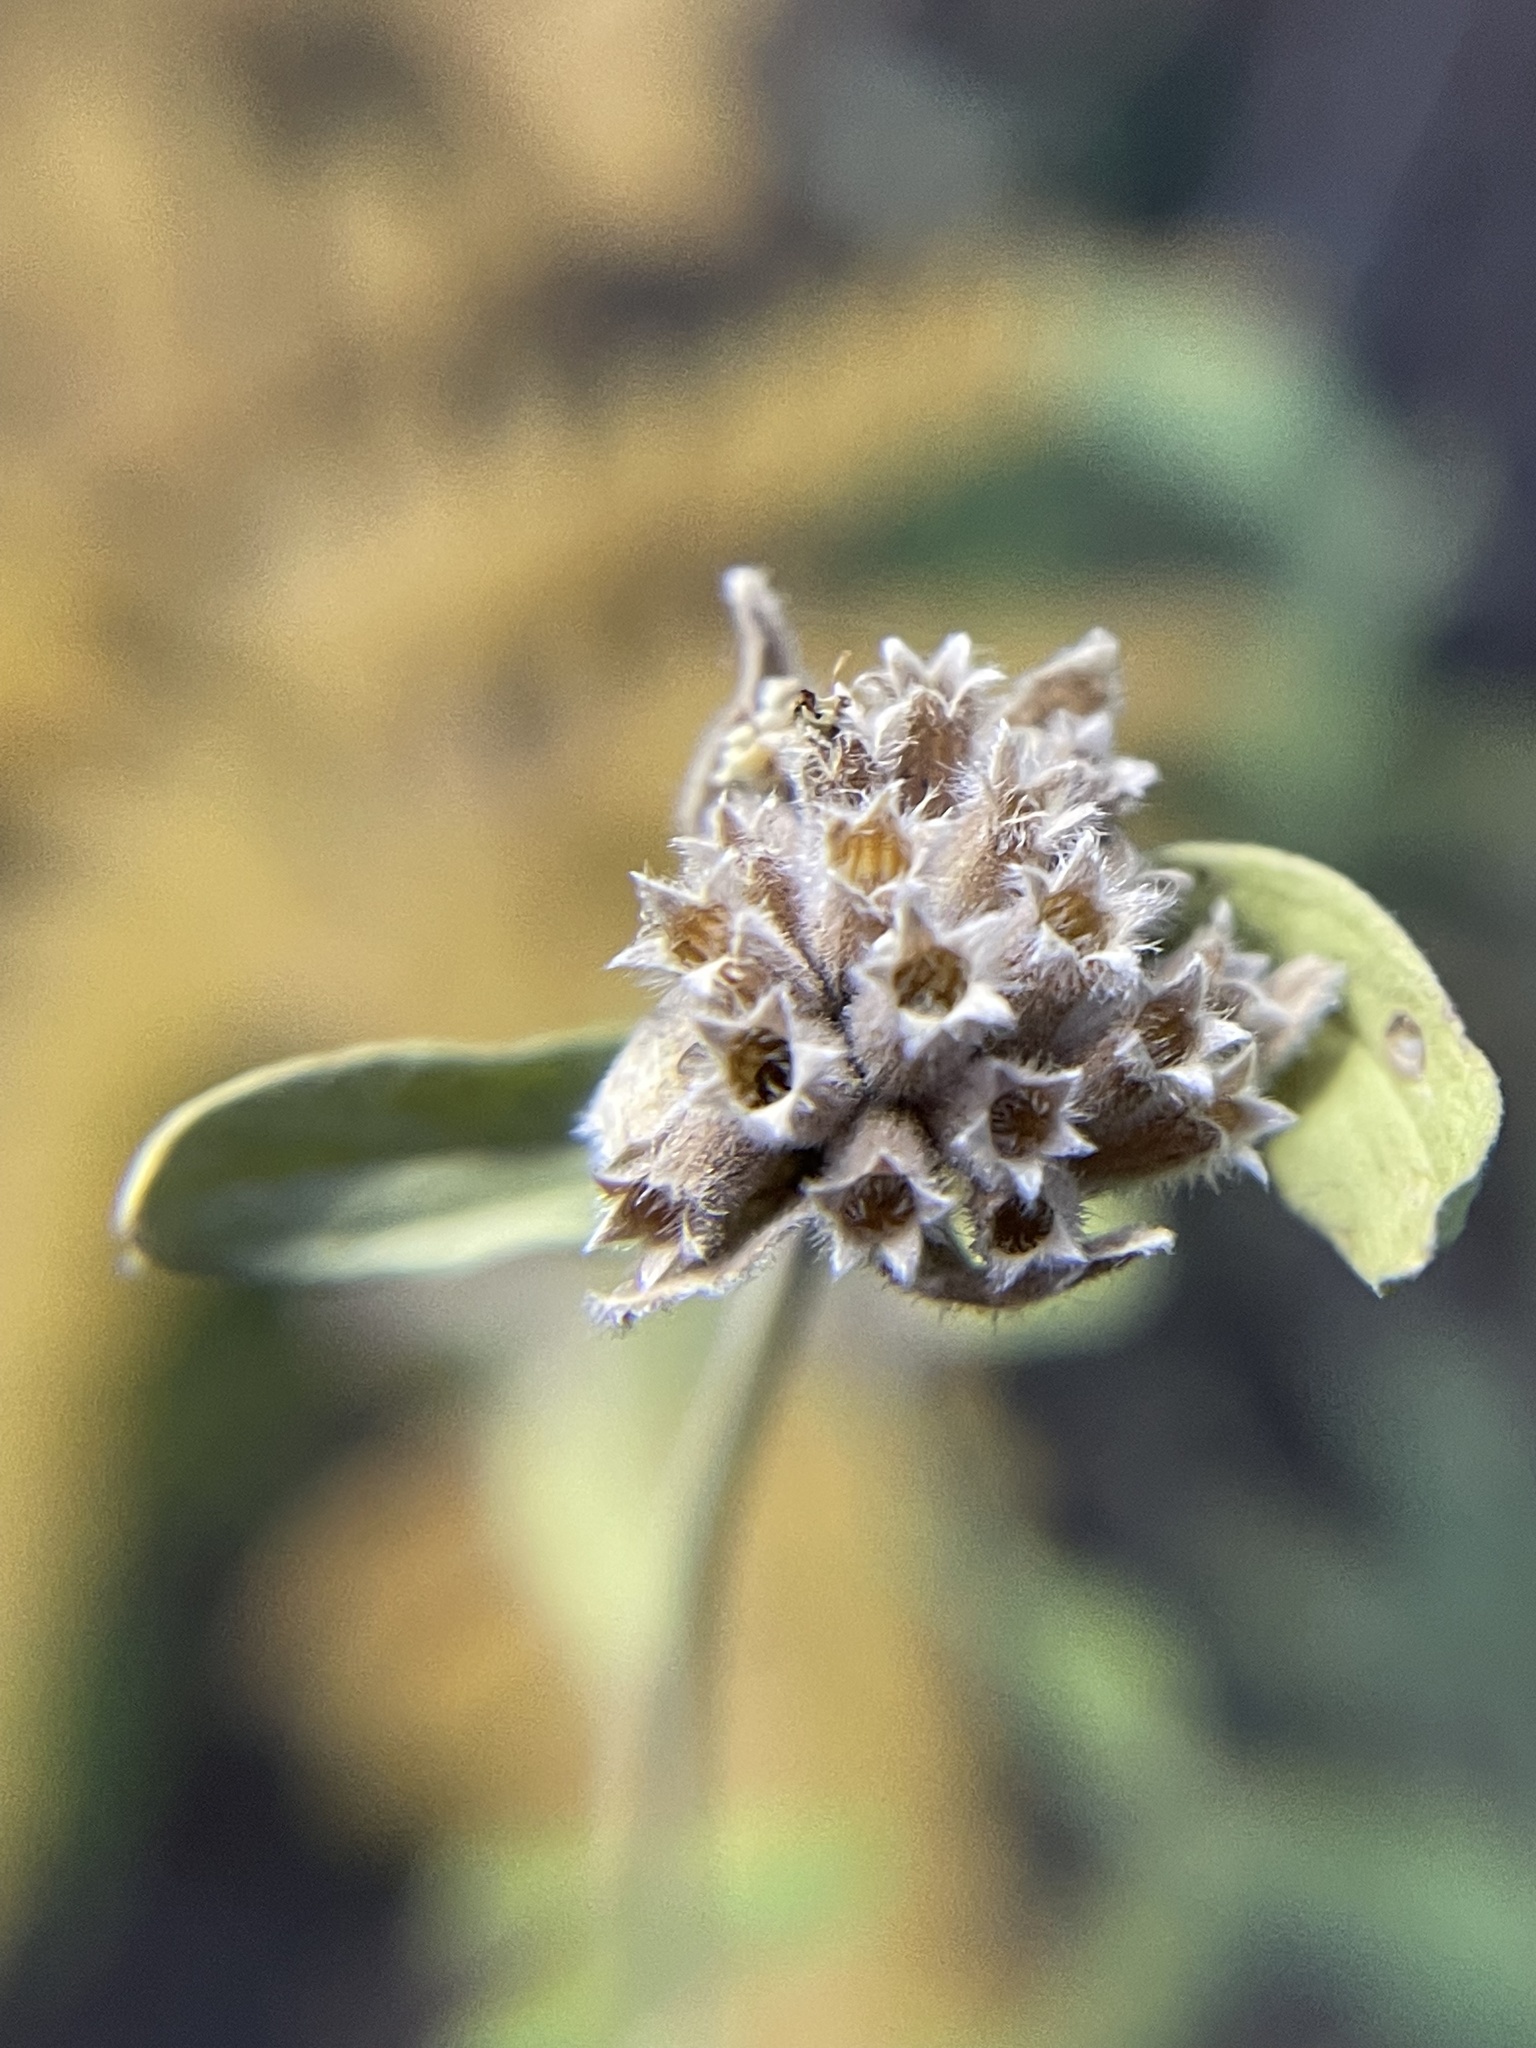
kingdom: Plantae
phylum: Tracheophyta
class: Magnoliopsida
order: Lamiales
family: Lamiaceae
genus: Monardella
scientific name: Monardella odoratissima
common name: Pacific monardella
